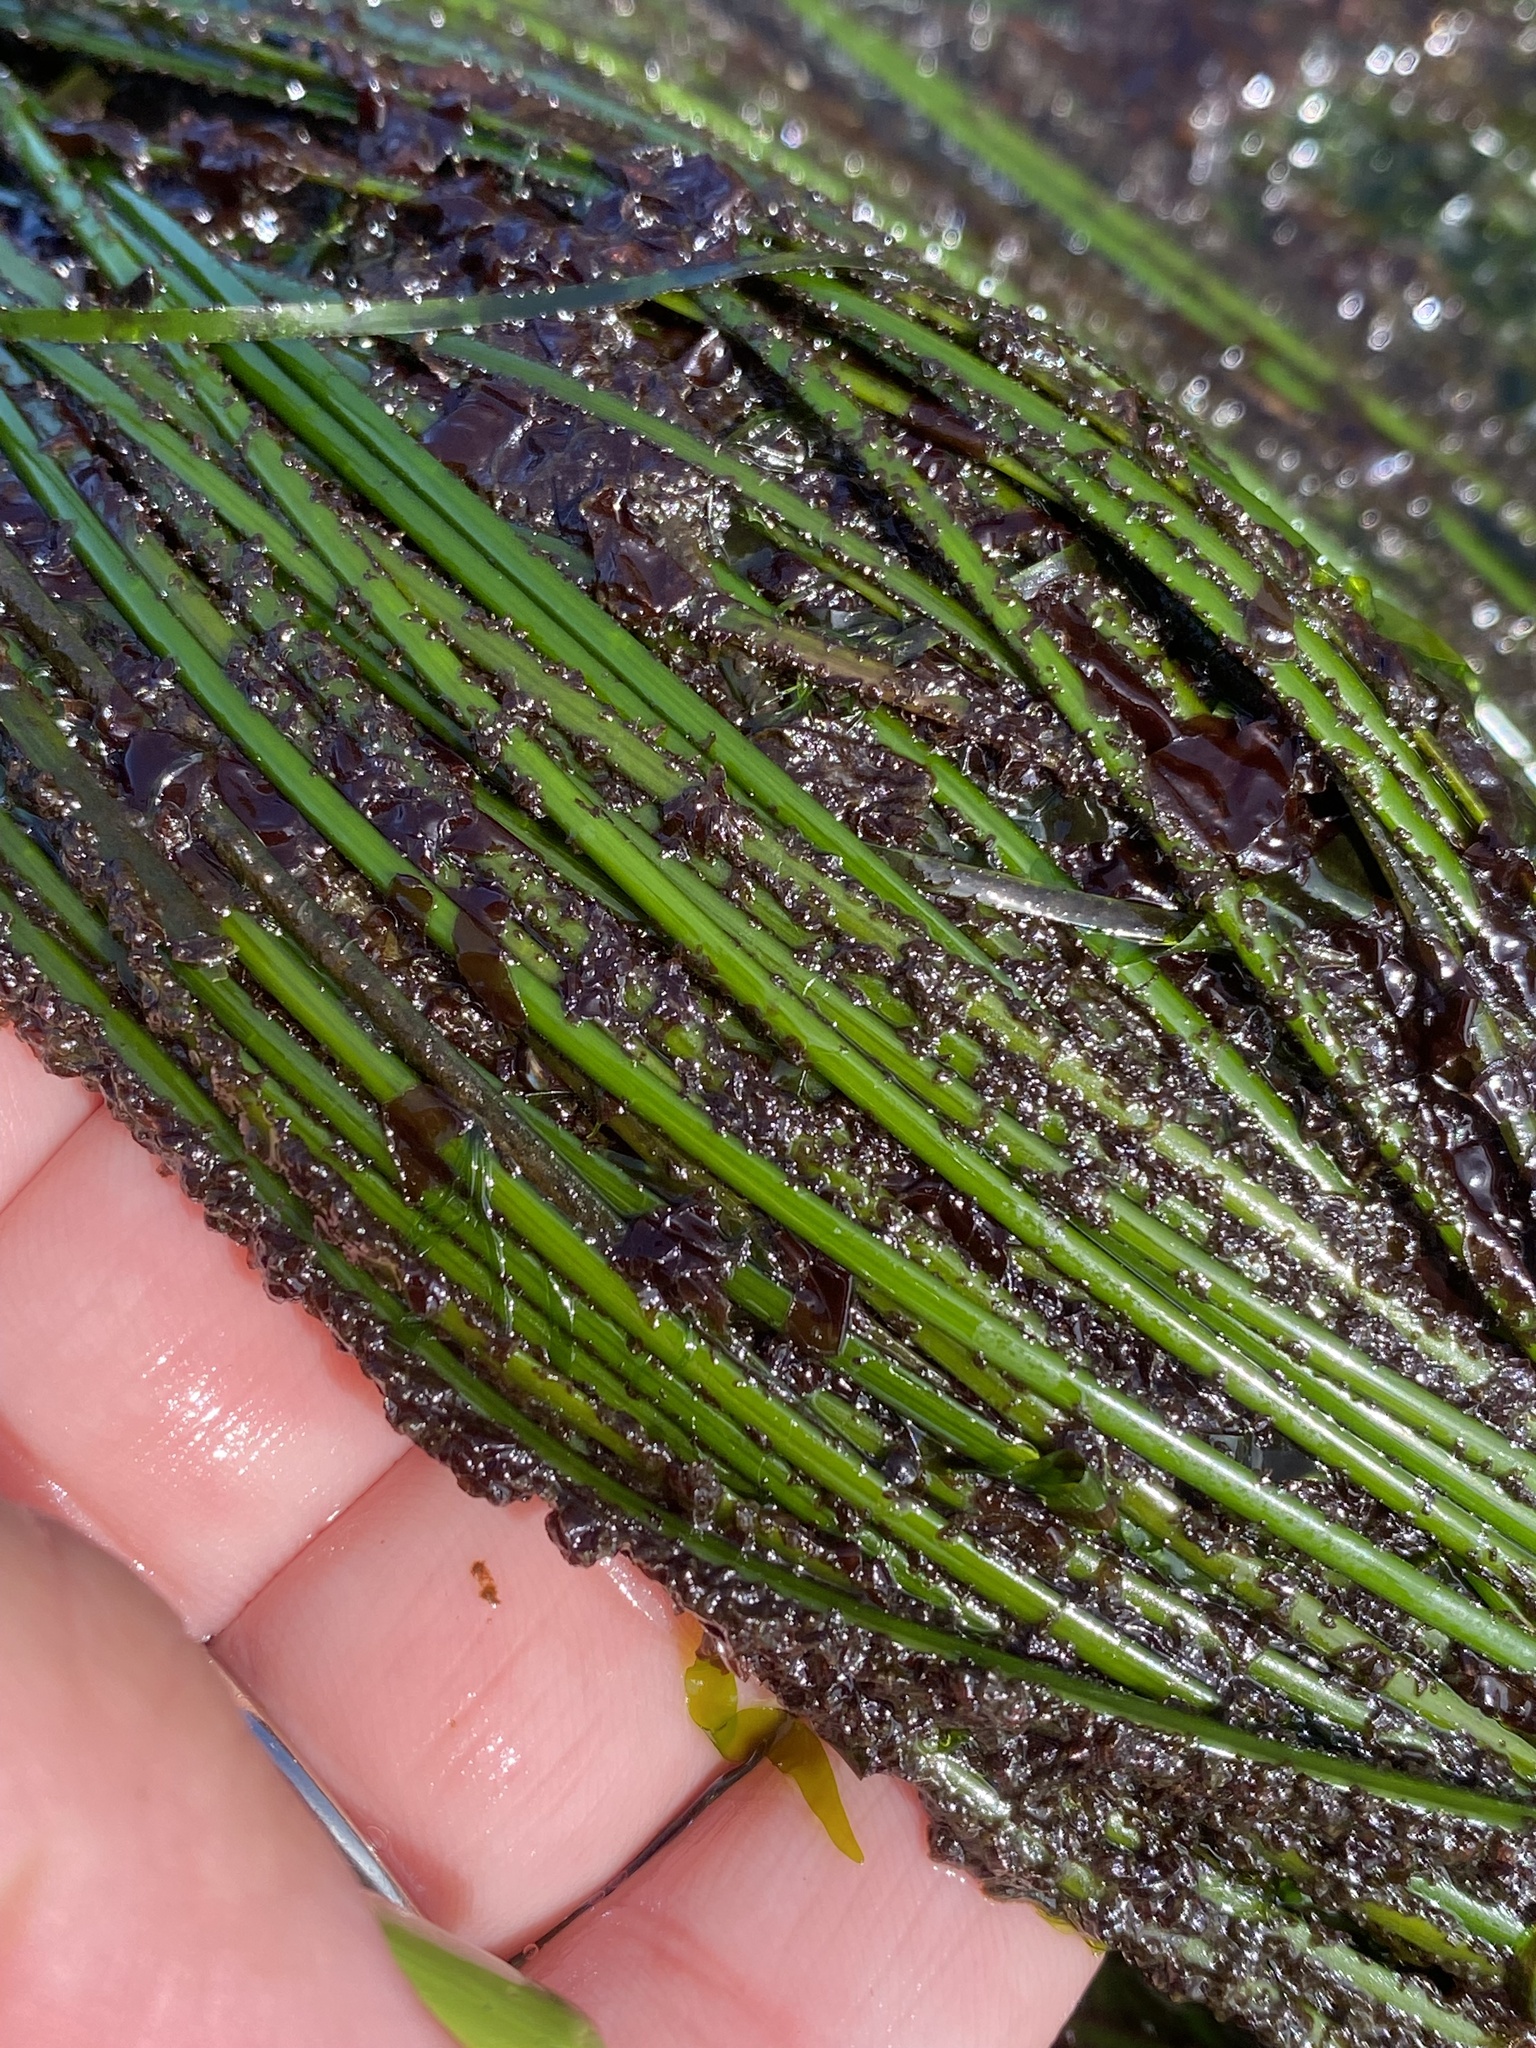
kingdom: Plantae
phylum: Tracheophyta
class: Liliopsida
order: Alismatales
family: Zosteraceae
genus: Phyllospadix
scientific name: Phyllospadix torreyi
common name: Surfgrass
